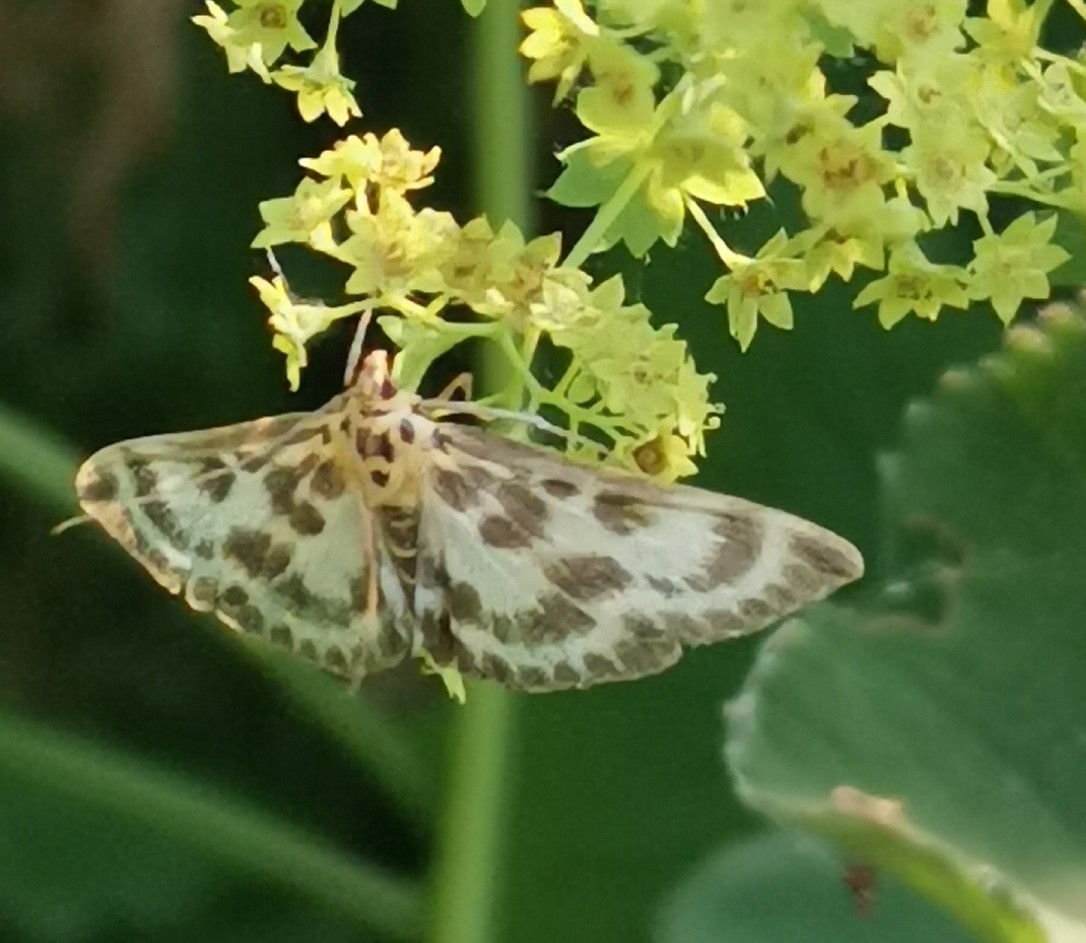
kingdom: Animalia
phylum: Arthropoda
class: Insecta
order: Lepidoptera
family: Crambidae
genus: Anania
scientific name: Anania hortulata
